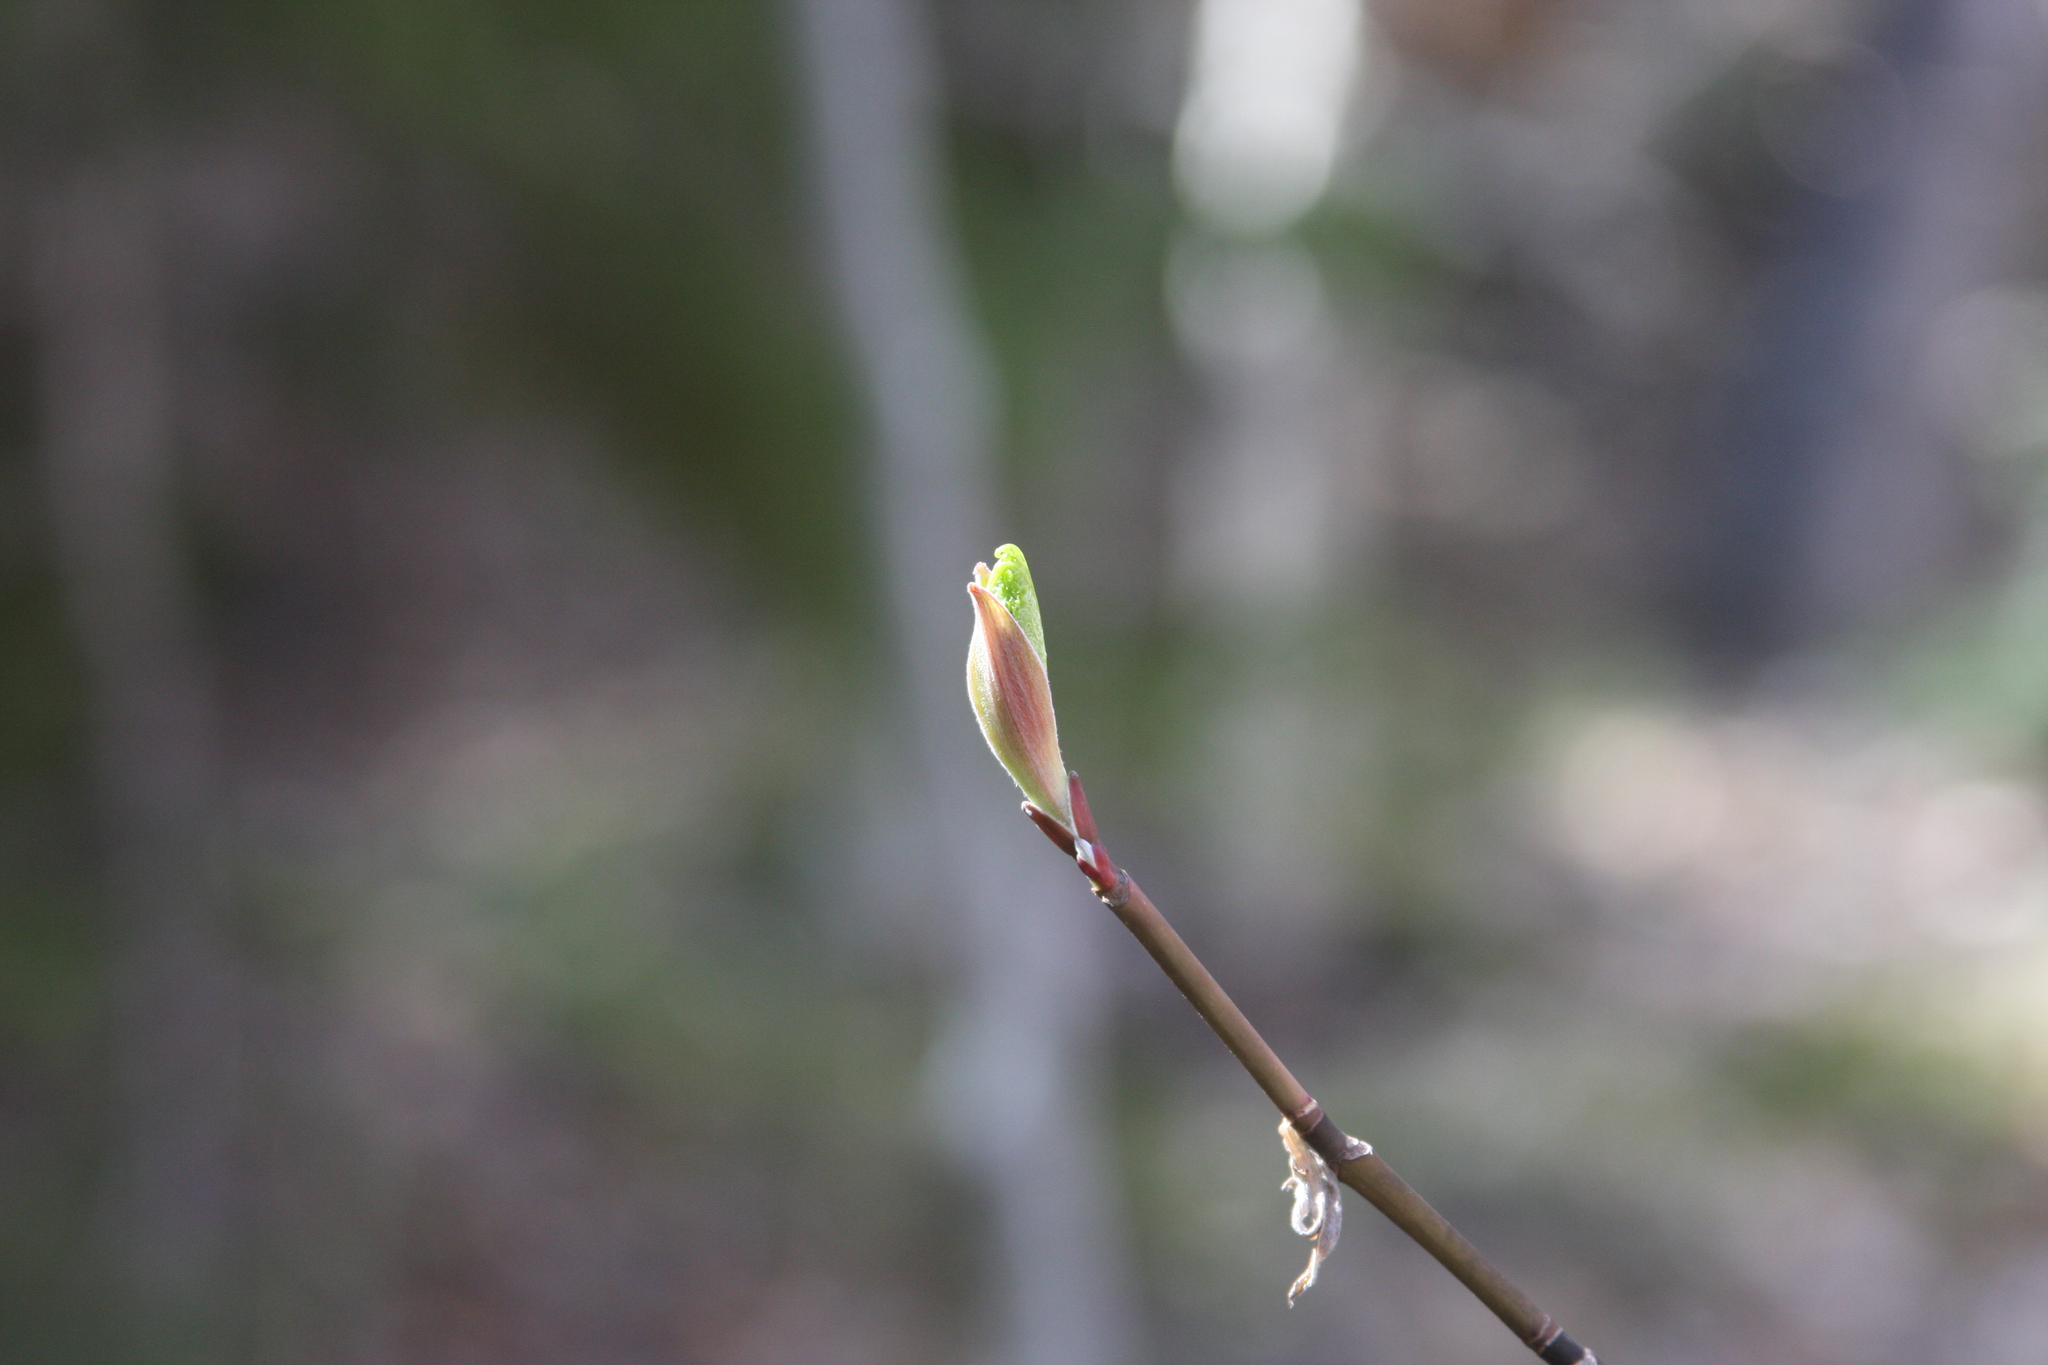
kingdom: Plantae
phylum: Tracheophyta
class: Magnoliopsida
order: Sapindales
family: Sapindaceae
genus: Acer
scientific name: Acer pensylvanicum
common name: Moosewood
